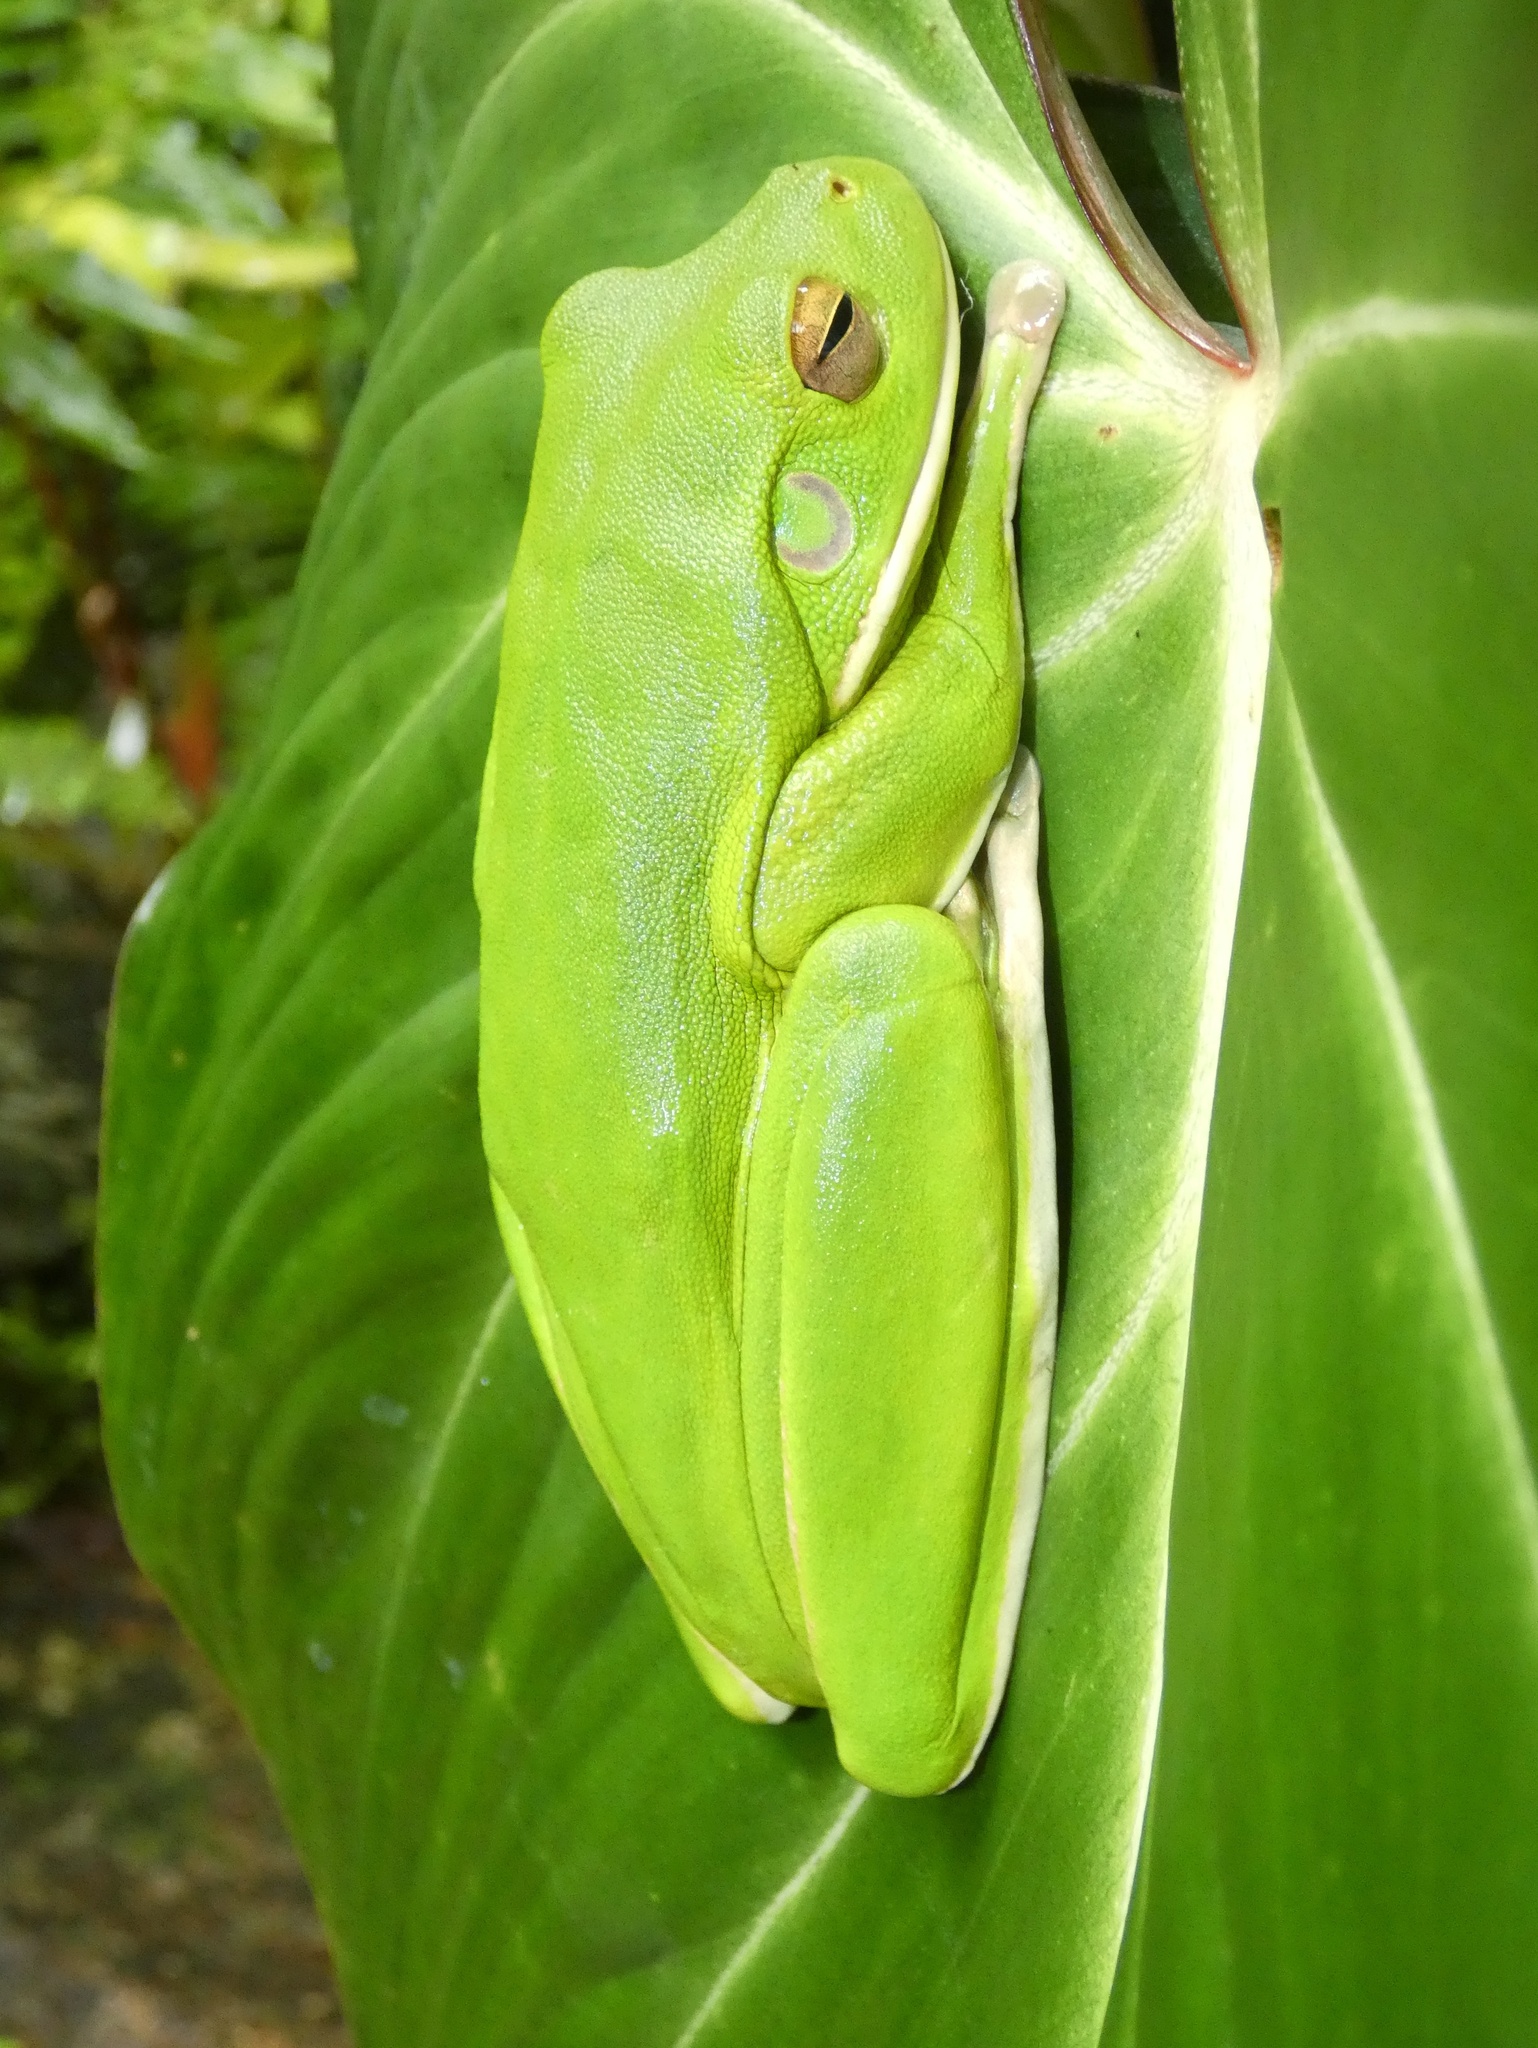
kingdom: Animalia
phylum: Chordata
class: Amphibia
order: Anura
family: Pelodryadidae
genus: Nyctimystes
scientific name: Nyctimystes infrafrenatus
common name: Australian giant treefrog
